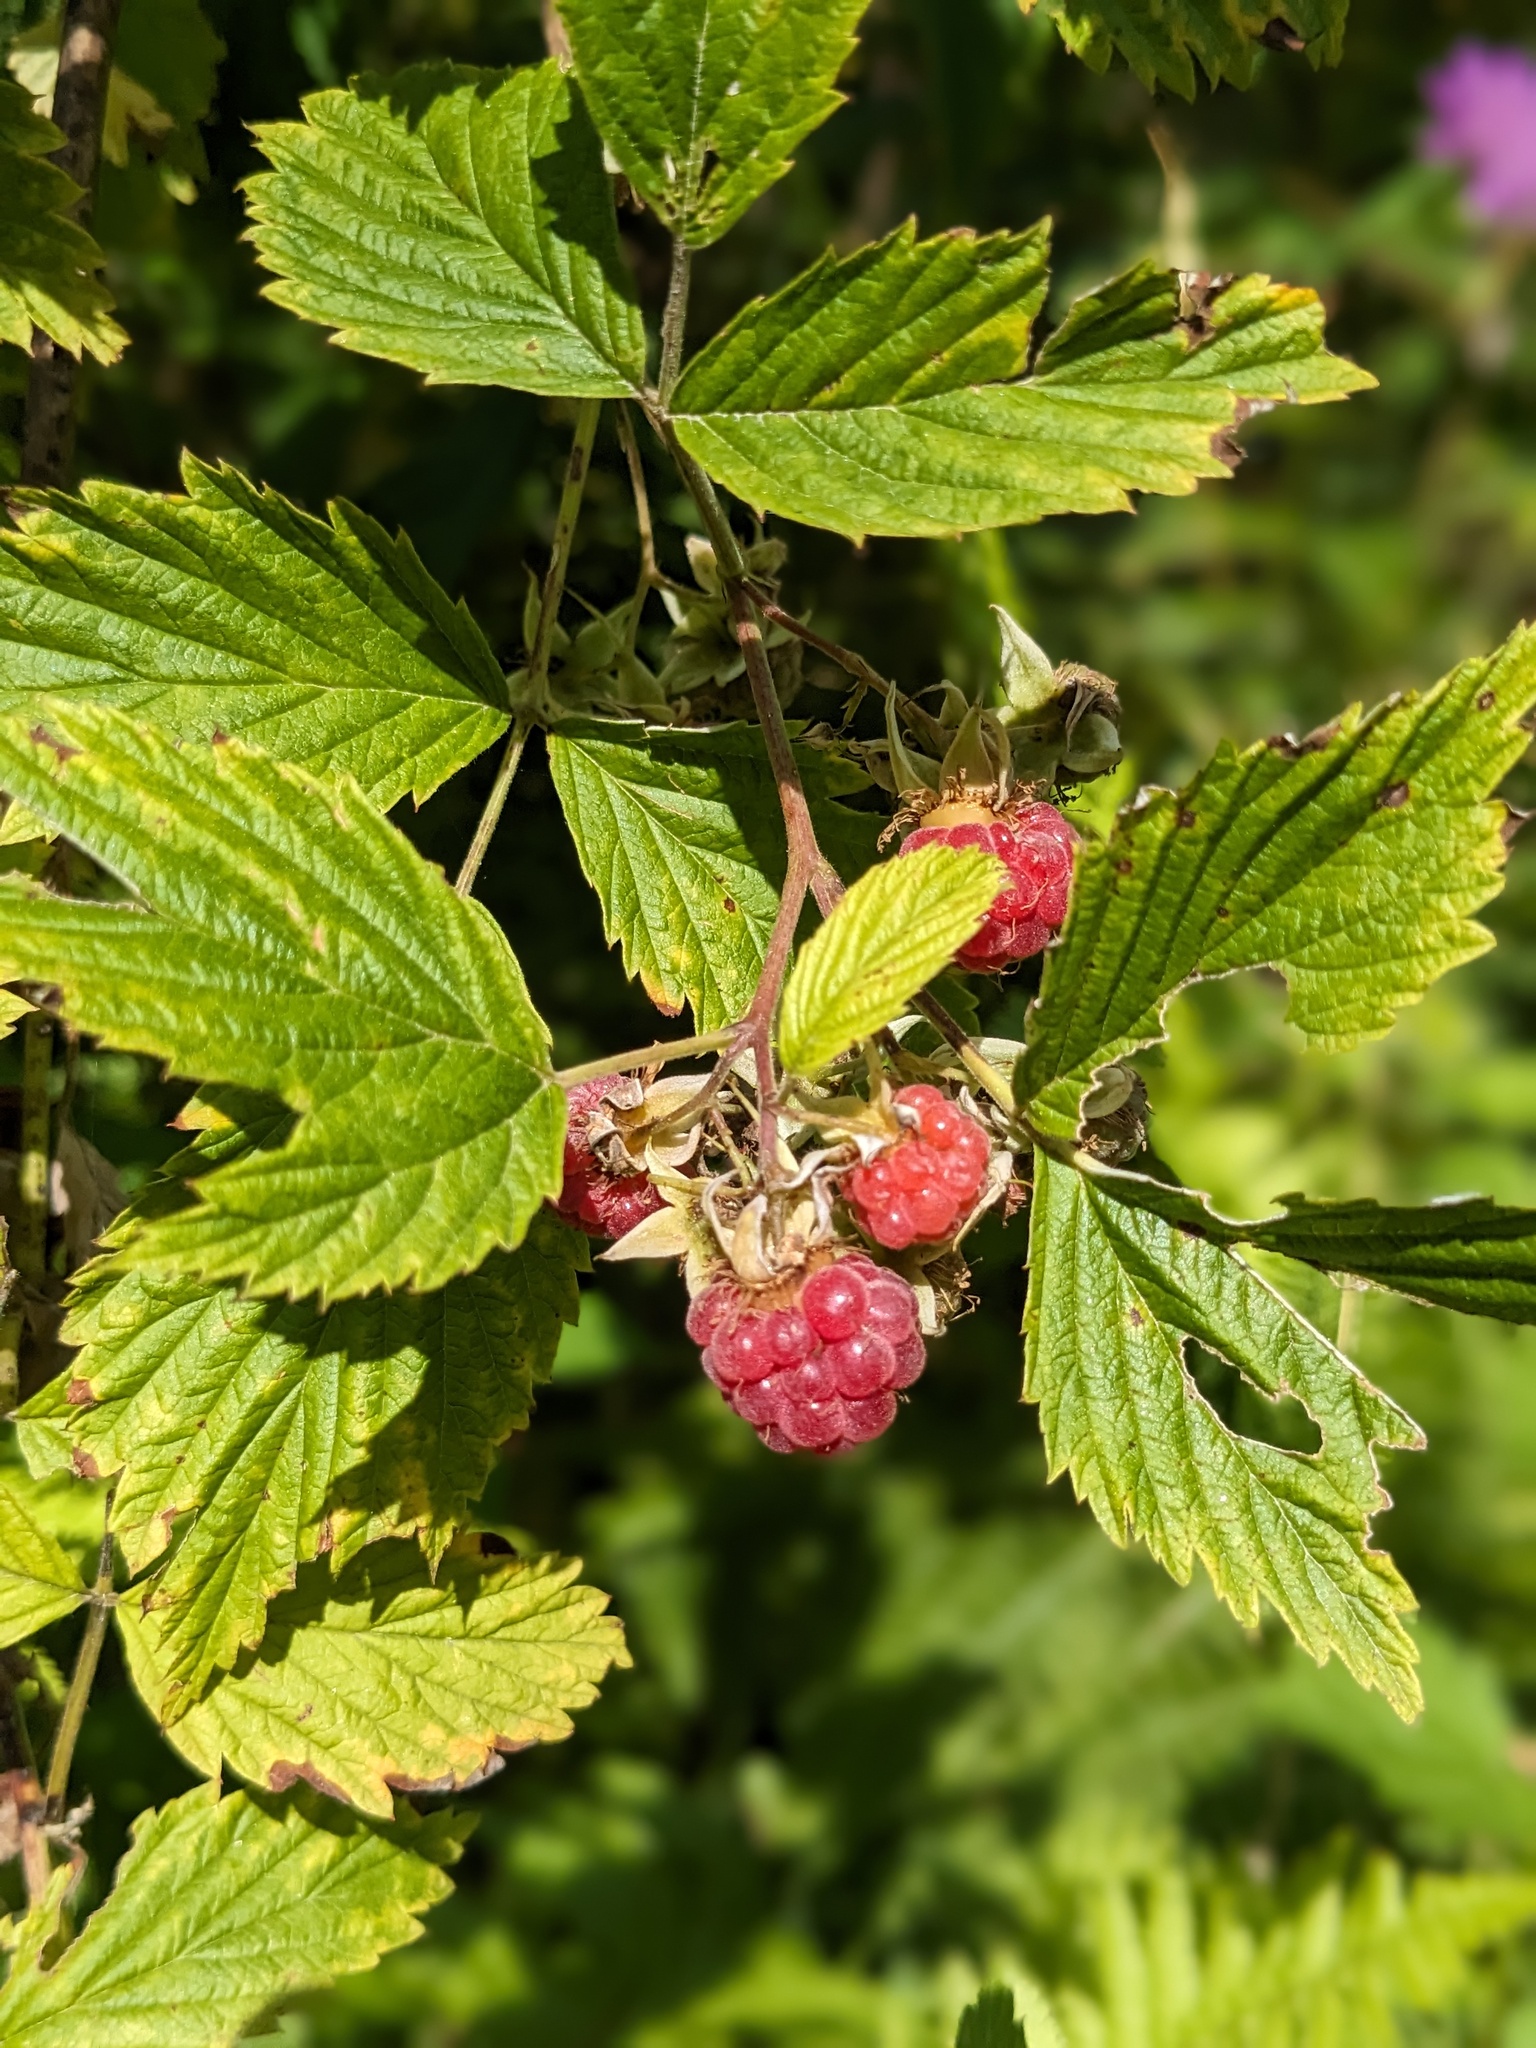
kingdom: Plantae
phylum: Tracheophyta
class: Magnoliopsida
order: Rosales
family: Rosaceae
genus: Rubus
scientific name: Rubus idaeus
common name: Raspberry
